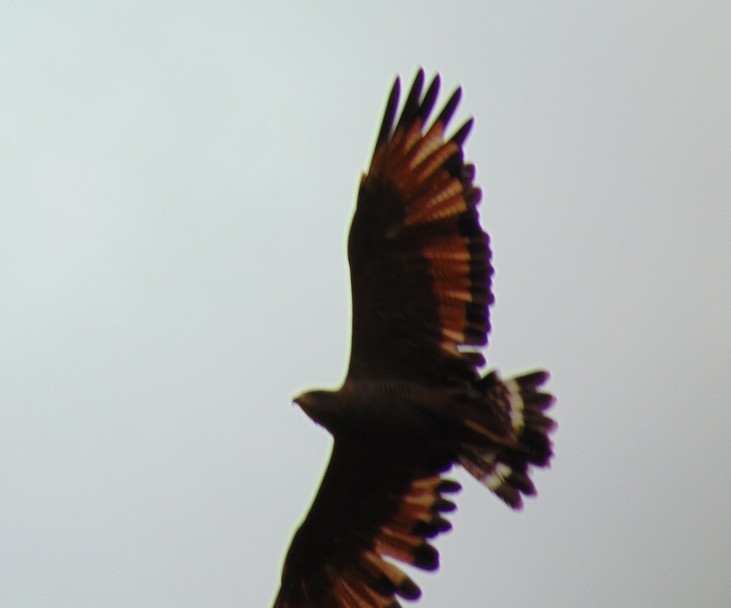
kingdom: Animalia
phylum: Chordata
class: Aves
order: Accipitriformes
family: Accipitridae
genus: Buteogallus
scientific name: Buteogallus meridionalis
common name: Savanna hawk
